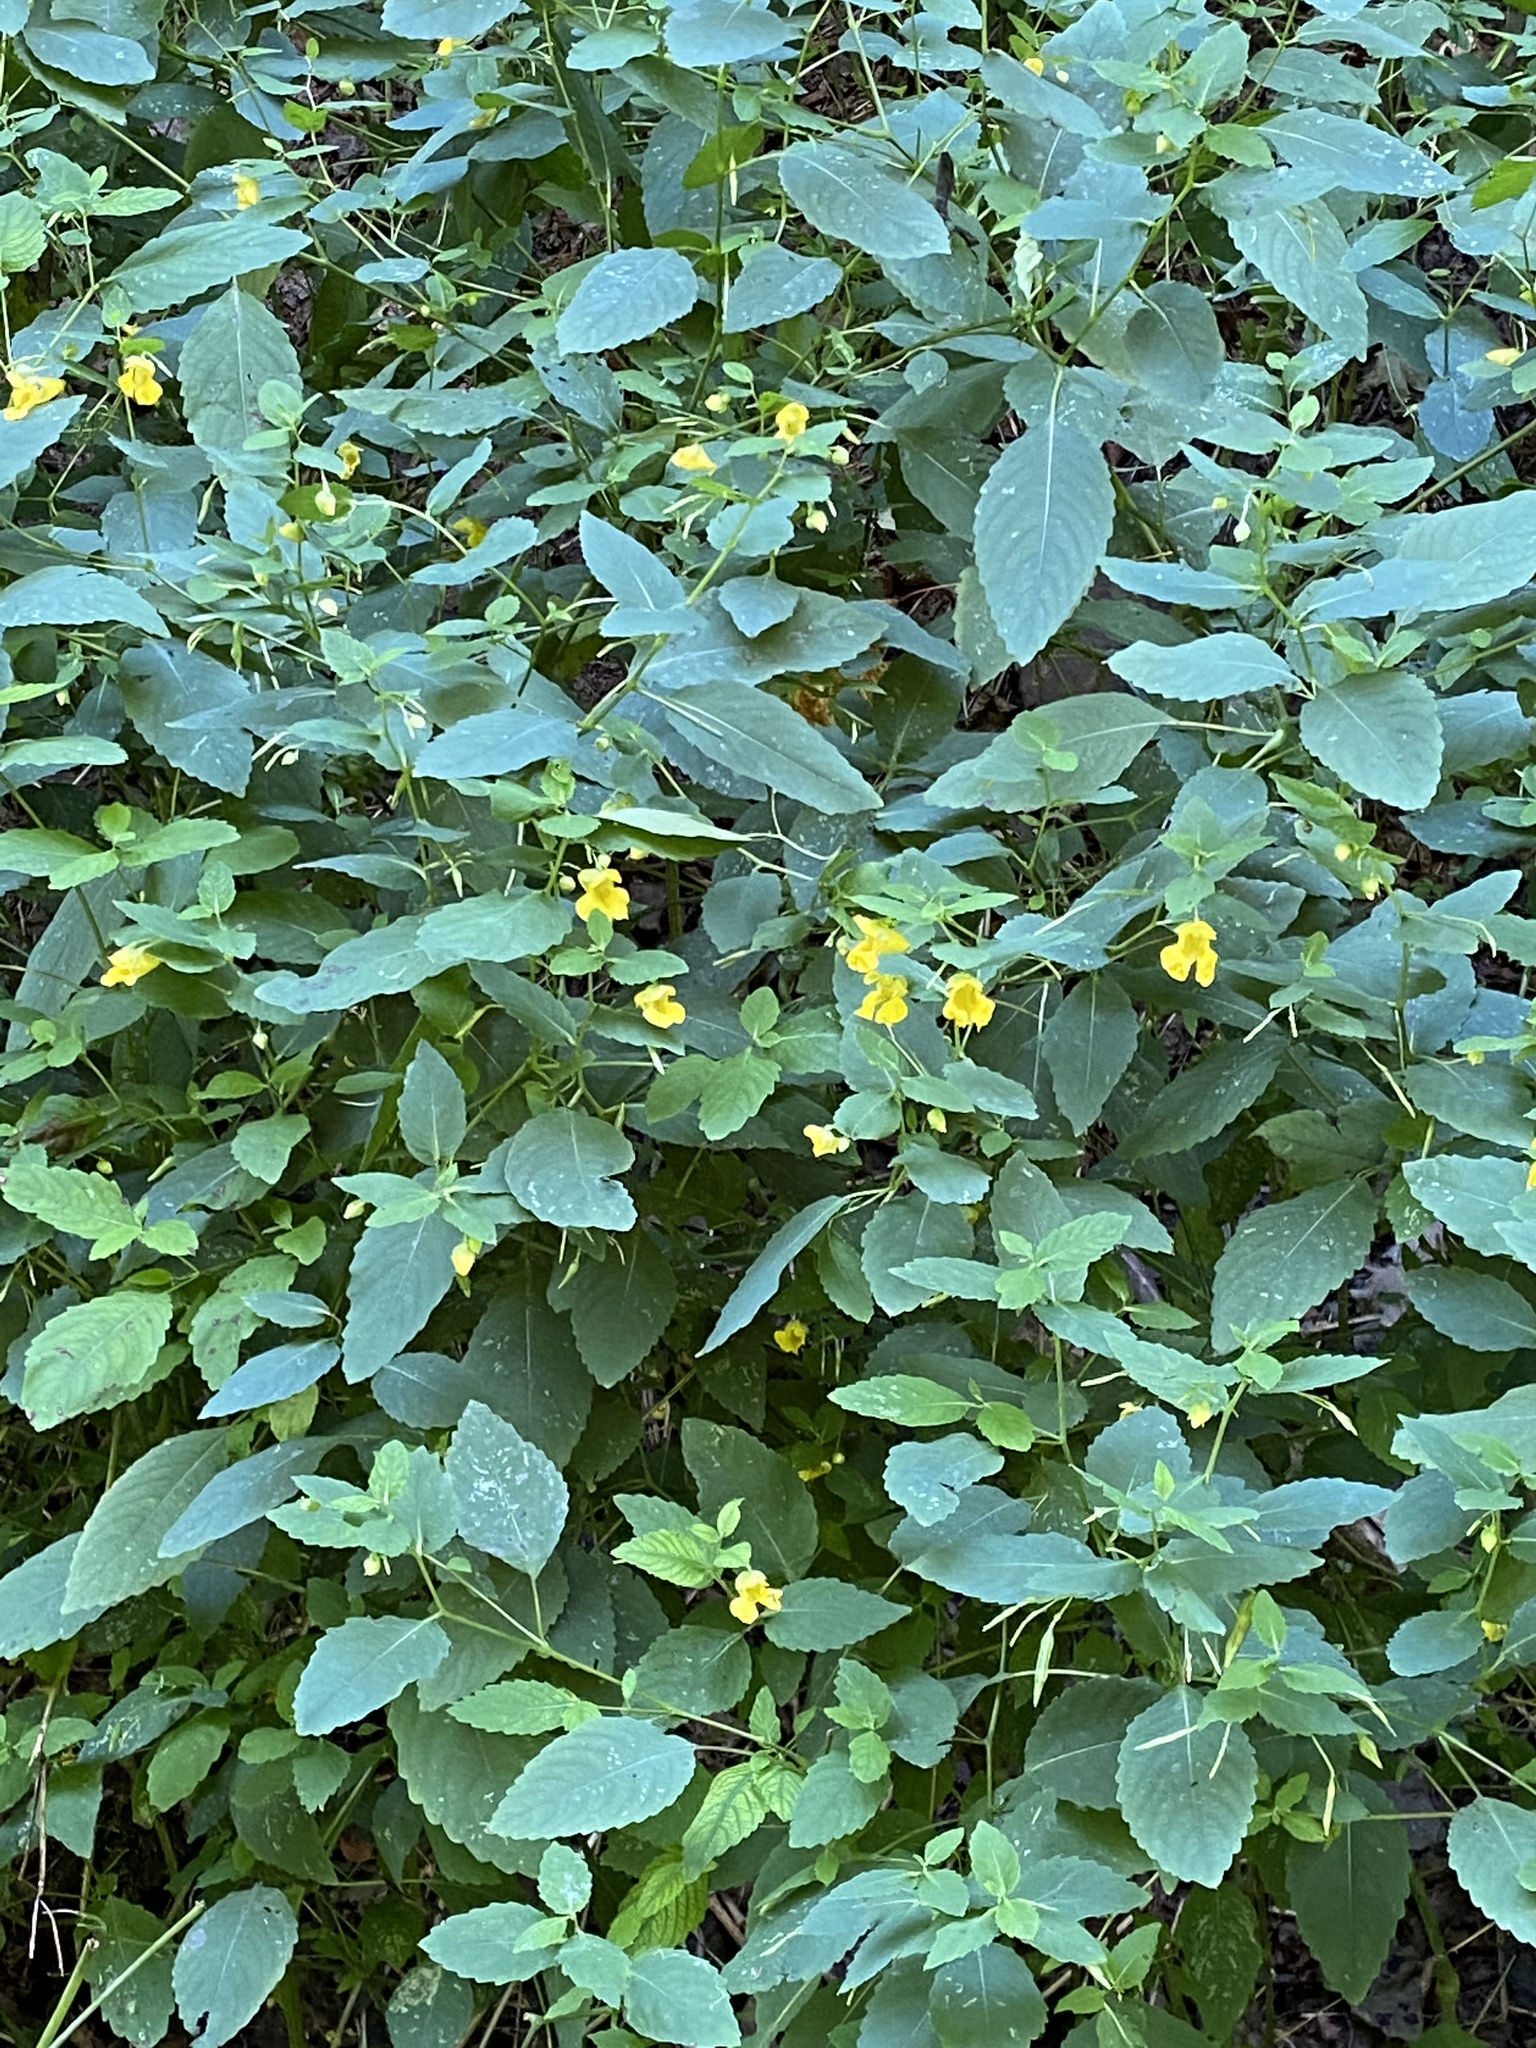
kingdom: Plantae
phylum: Tracheophyta
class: Magnoliopsida
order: Ericales
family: Balsaminaceae
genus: Impatiens
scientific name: Impatiens pallida
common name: Pale snapweed
